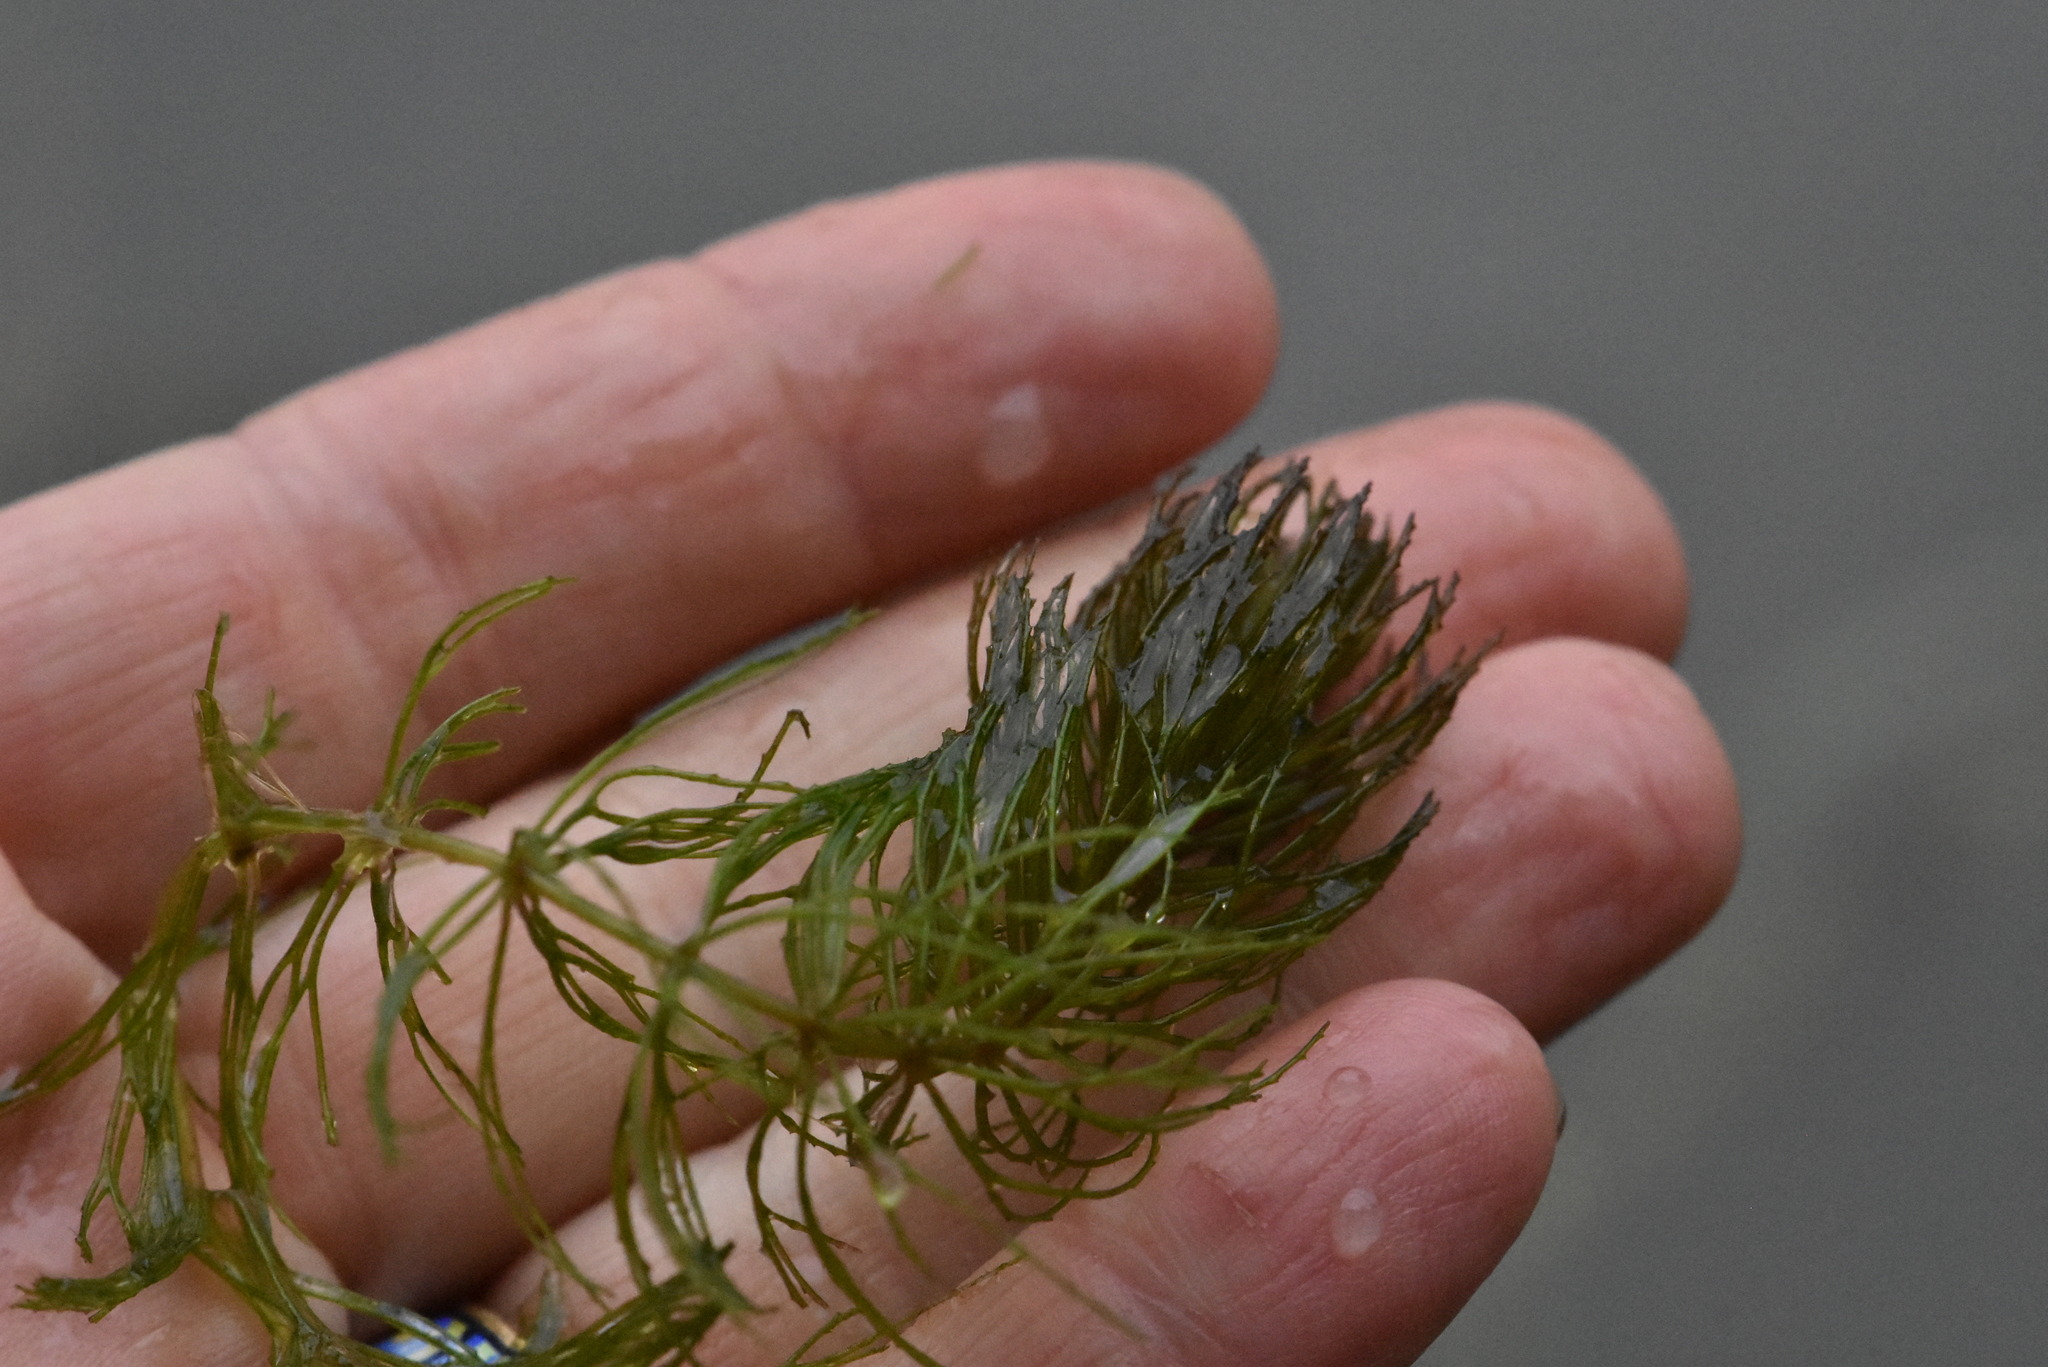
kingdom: Plantae
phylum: Tracheophyta
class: Magnoliopsida
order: Ceratophyllales
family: Ceratophyllaceae
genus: Ceratophyllum
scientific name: Ceratophyllum demersum
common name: Rigid hornwort
